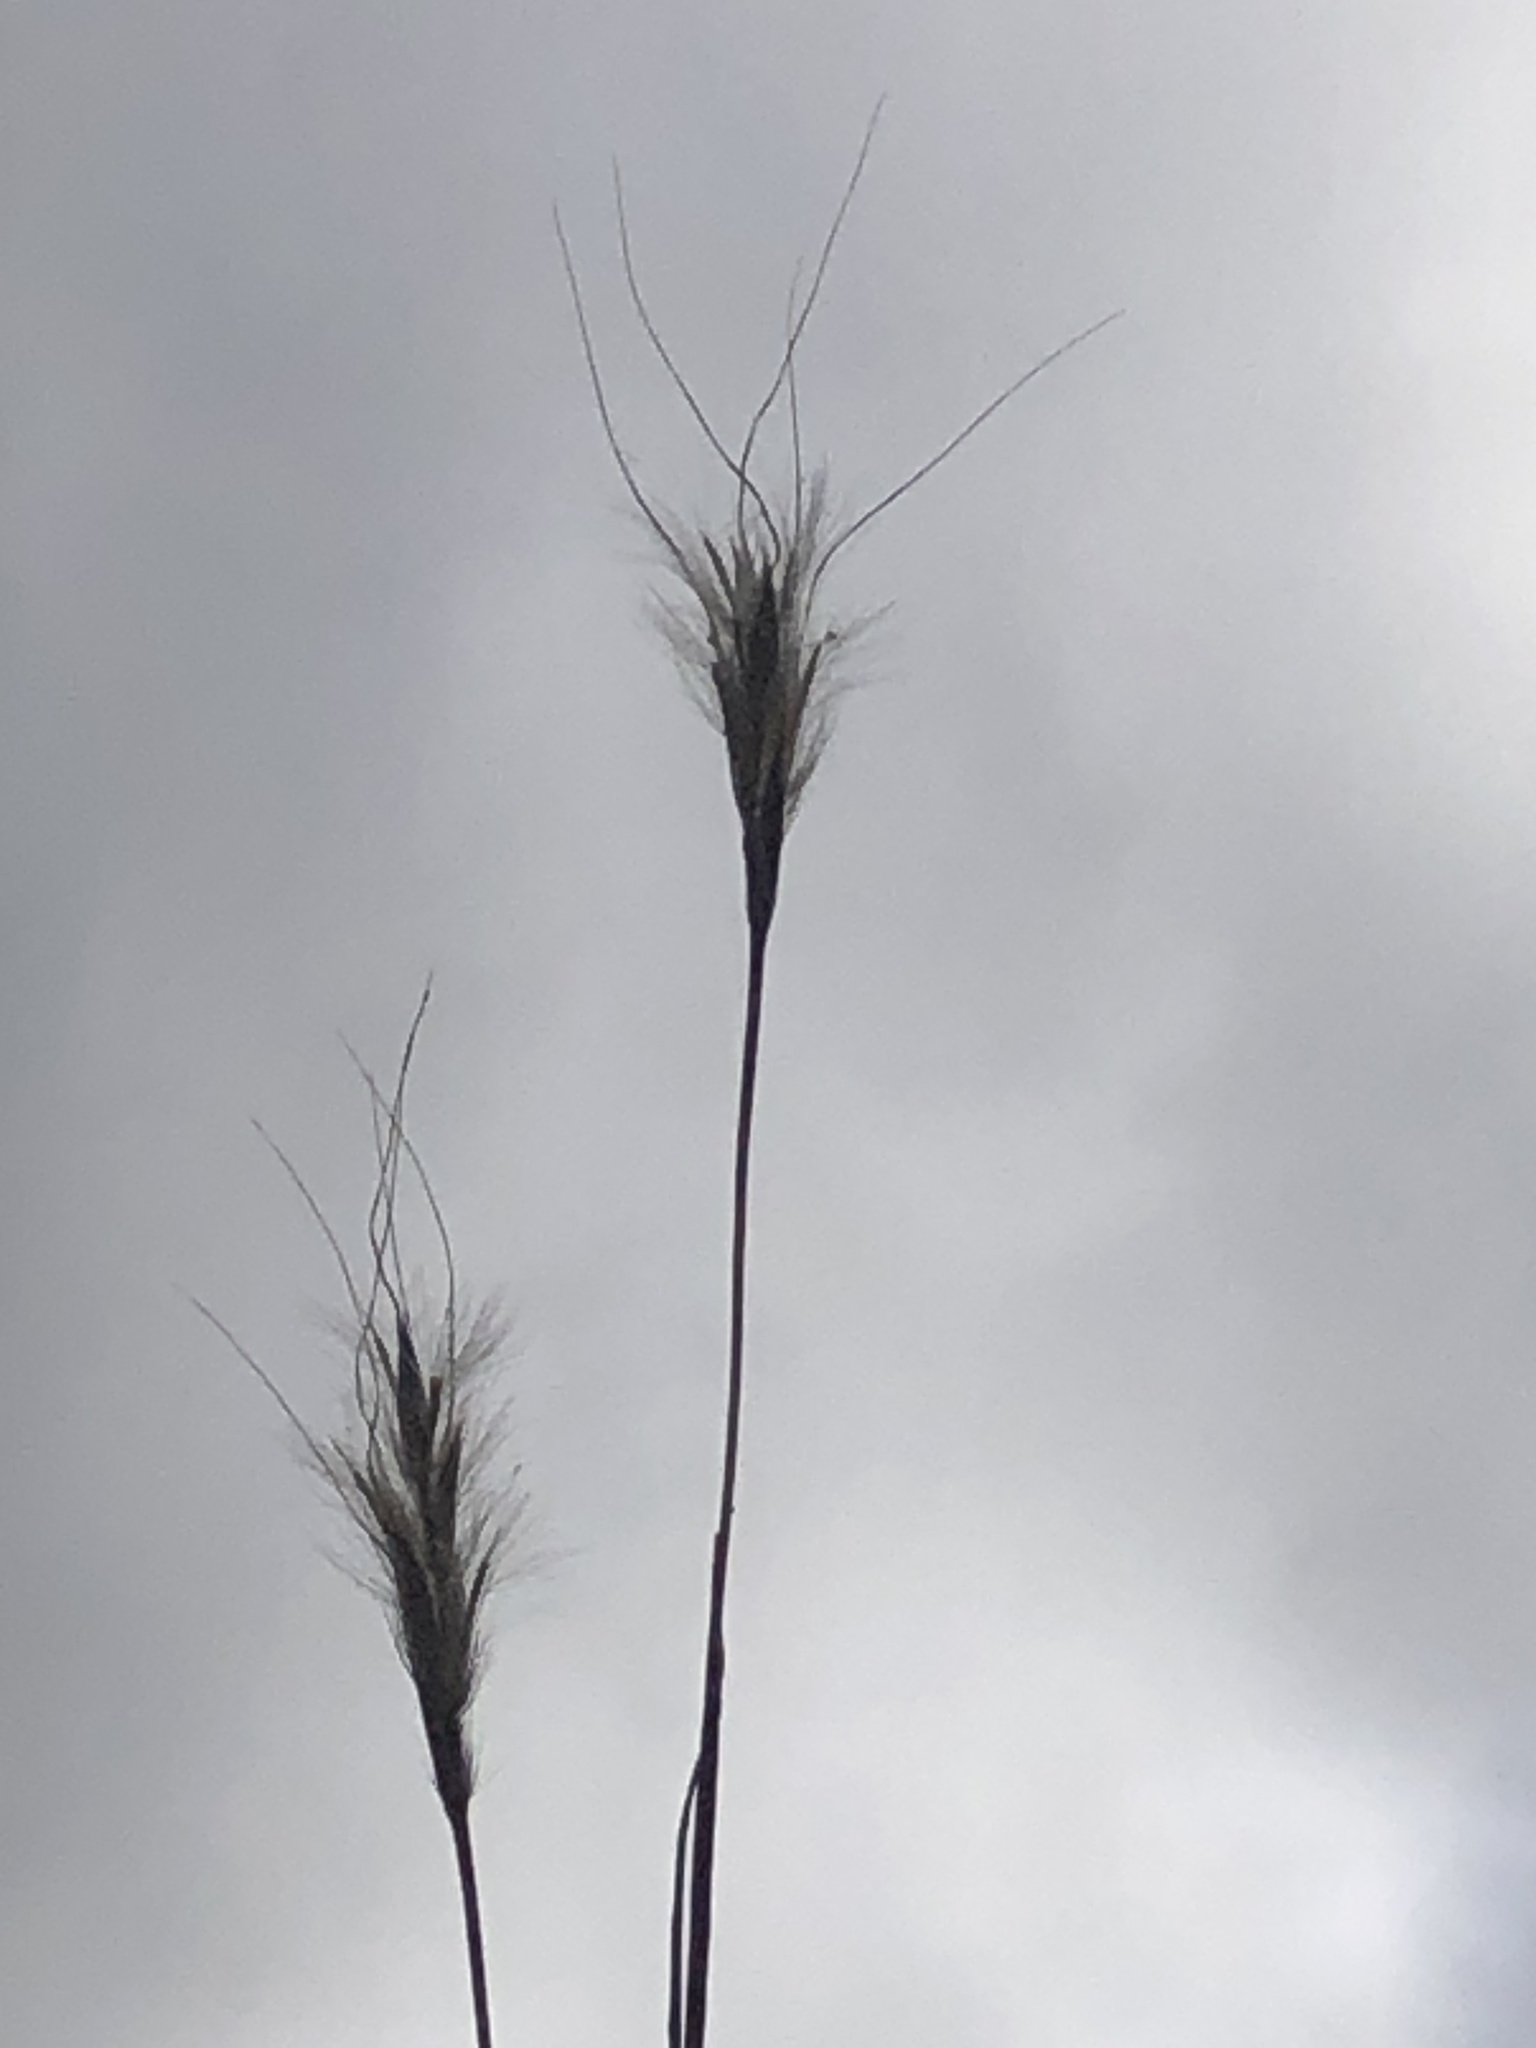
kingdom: Plantae
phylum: Tracheophyta
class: Liliopsida
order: Poales
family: Poaceae
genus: Andropogon
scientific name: Andropogon ternarius
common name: Split bluestem
